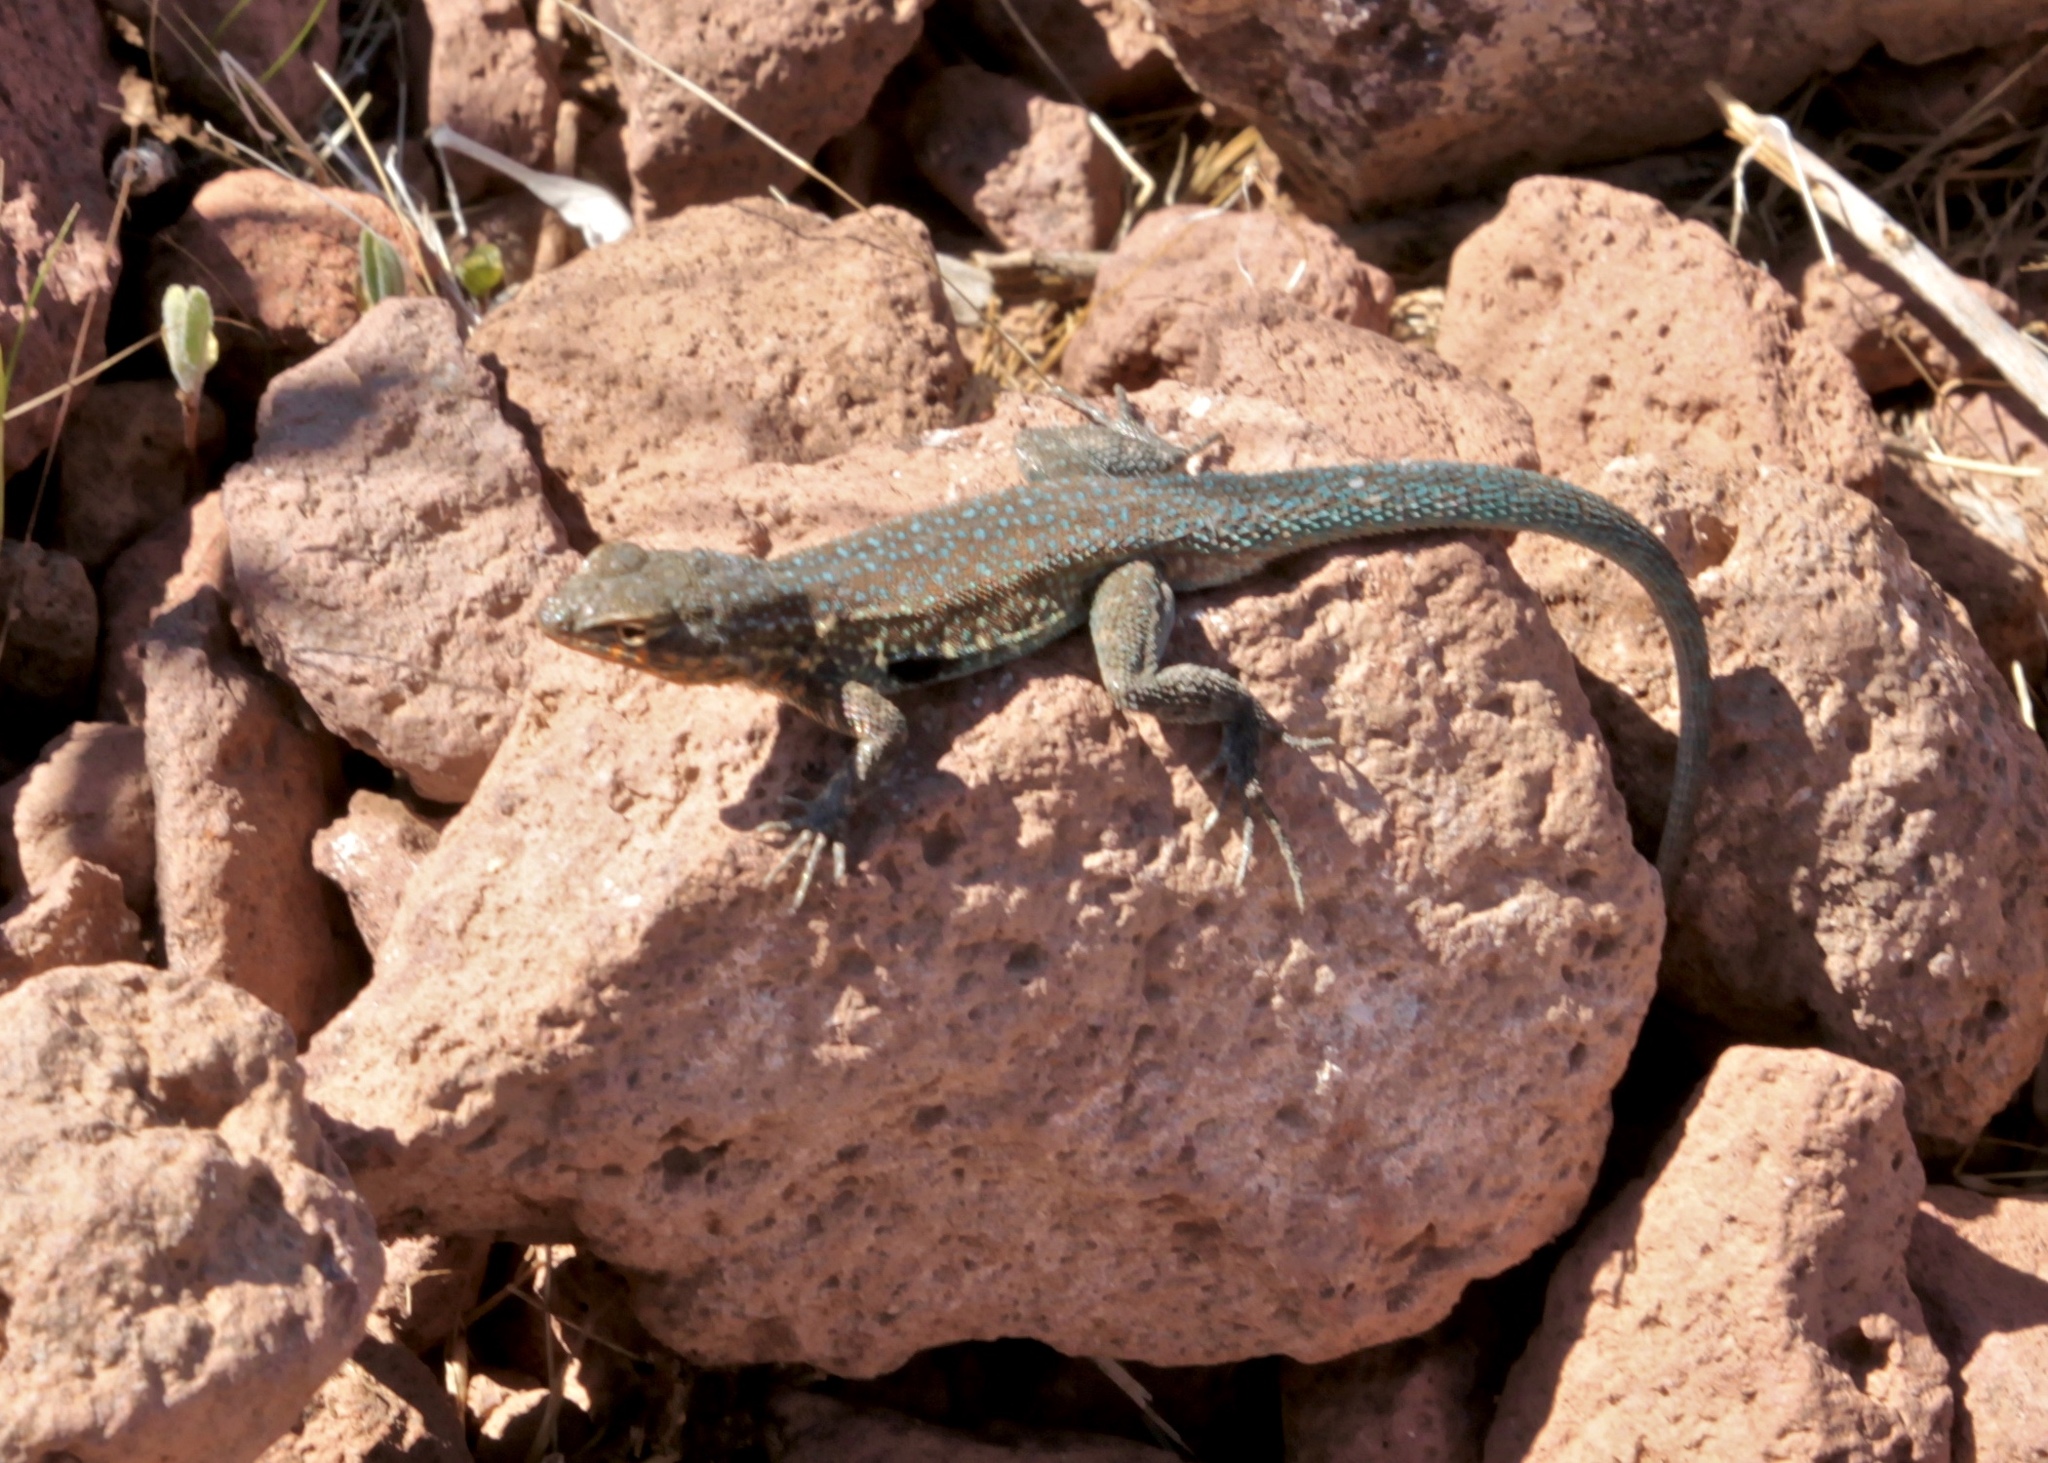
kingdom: Animalia
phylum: Chordata
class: Squamata
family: Phrynosomatidae
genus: Uta
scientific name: Uta stansburiana
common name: Side-blotched lizard
